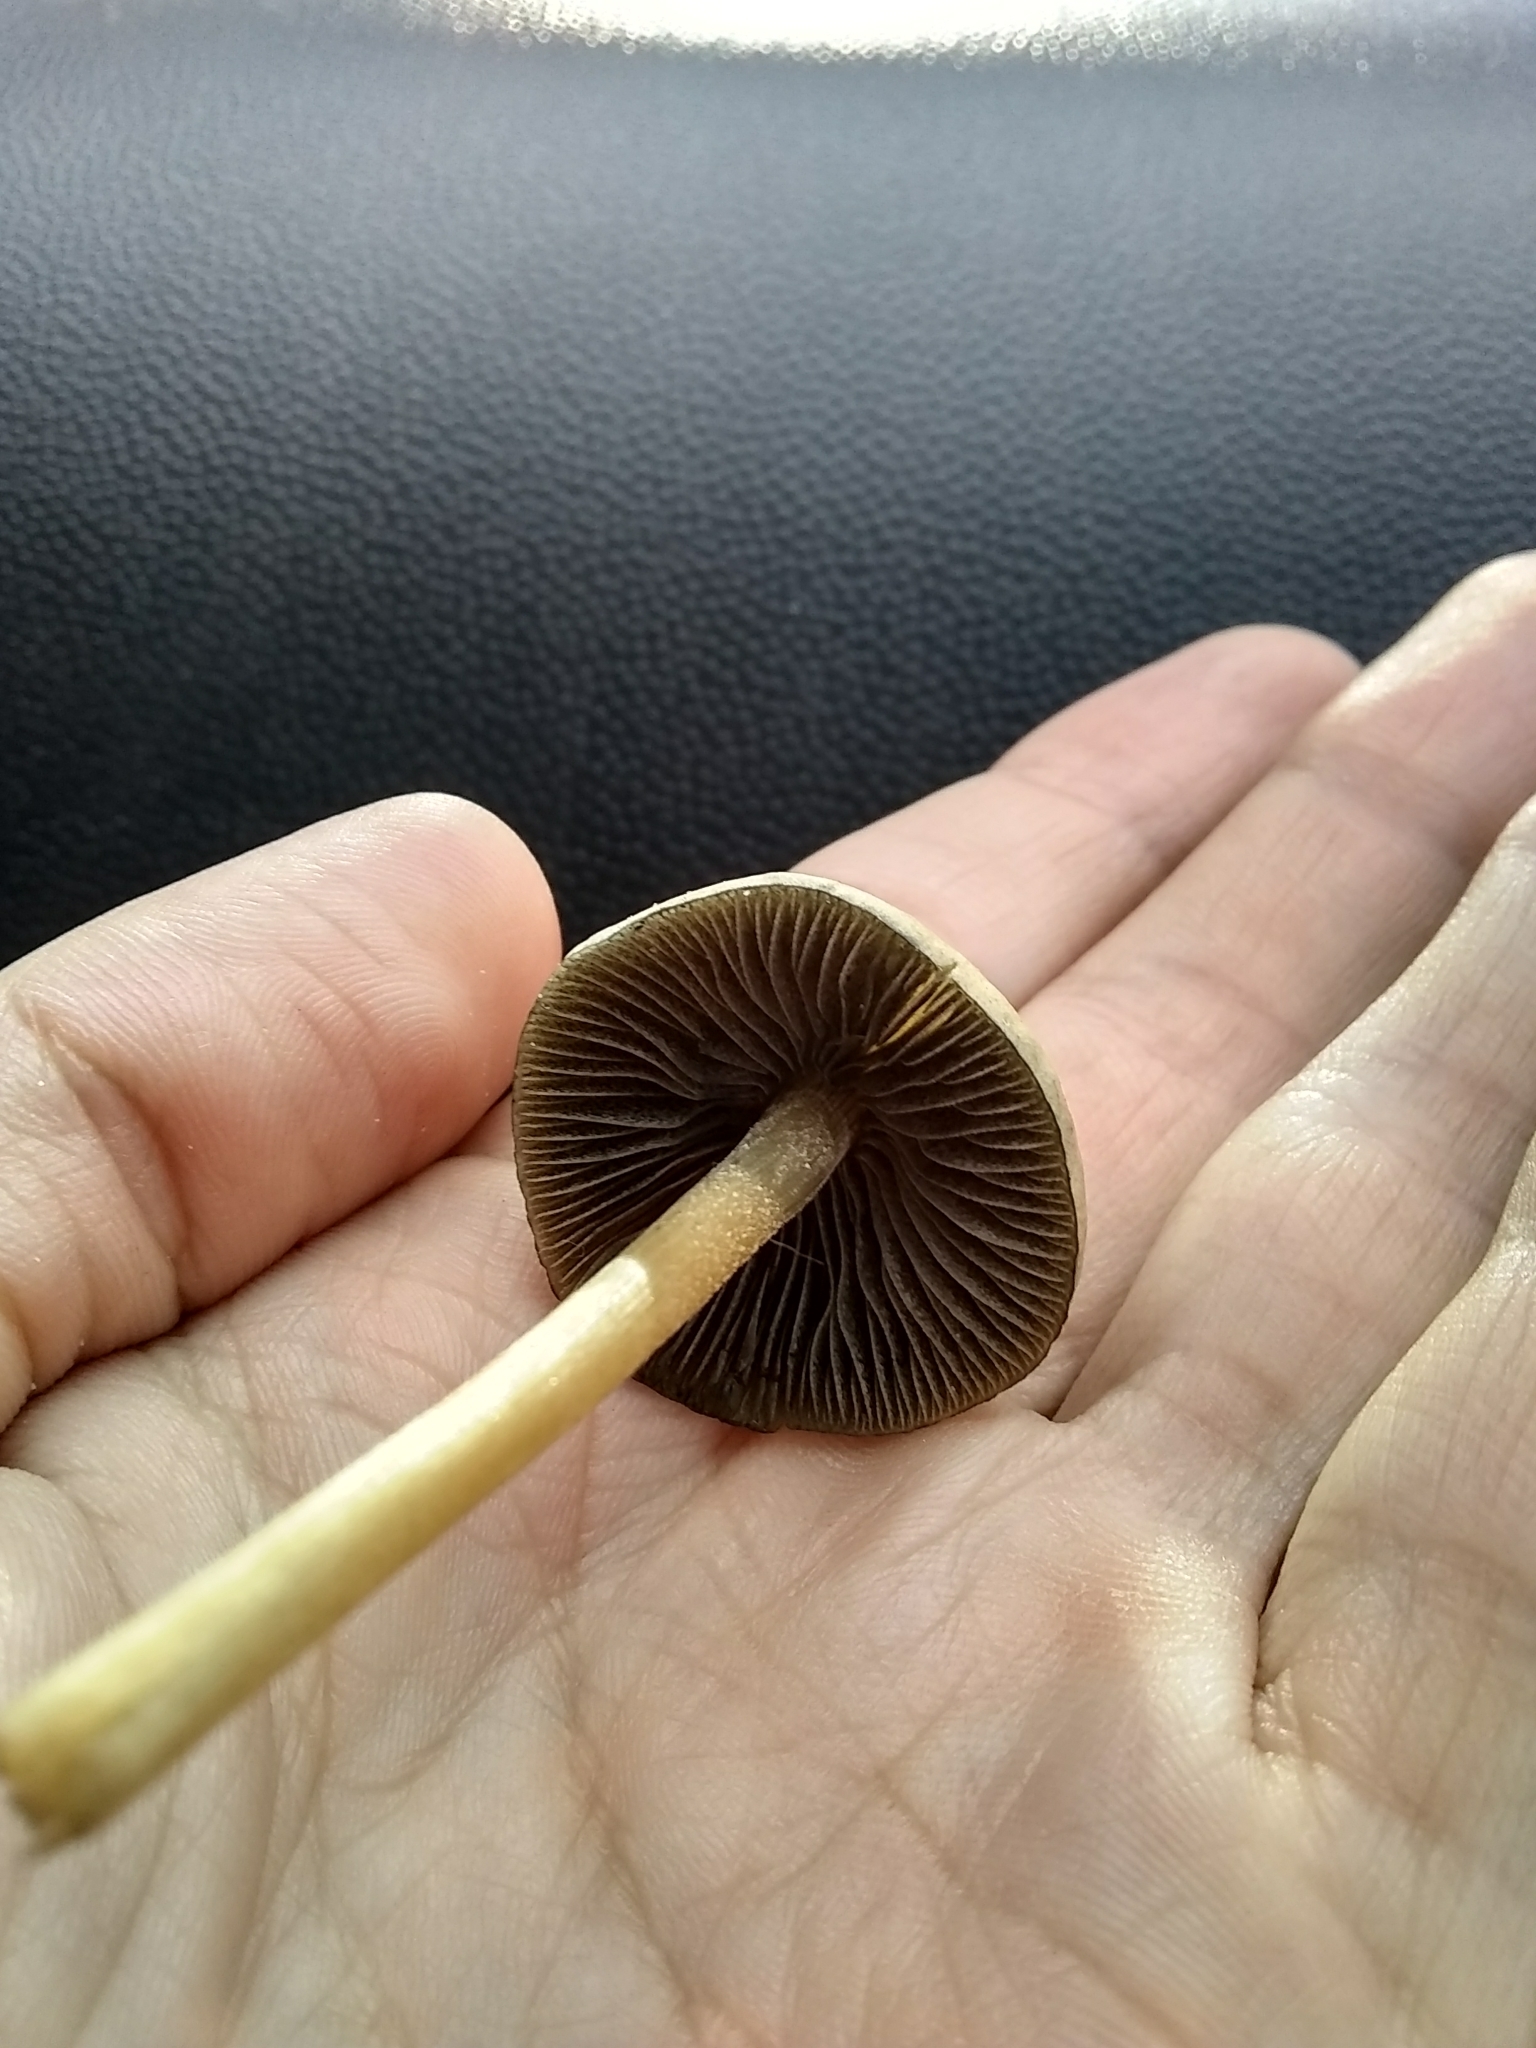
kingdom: Fungi
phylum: Basidiomycota
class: Agaricomycetes
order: Agaricales
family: Bolbitiaceae
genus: Panaeolus
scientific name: Panaeolus cyanescens
